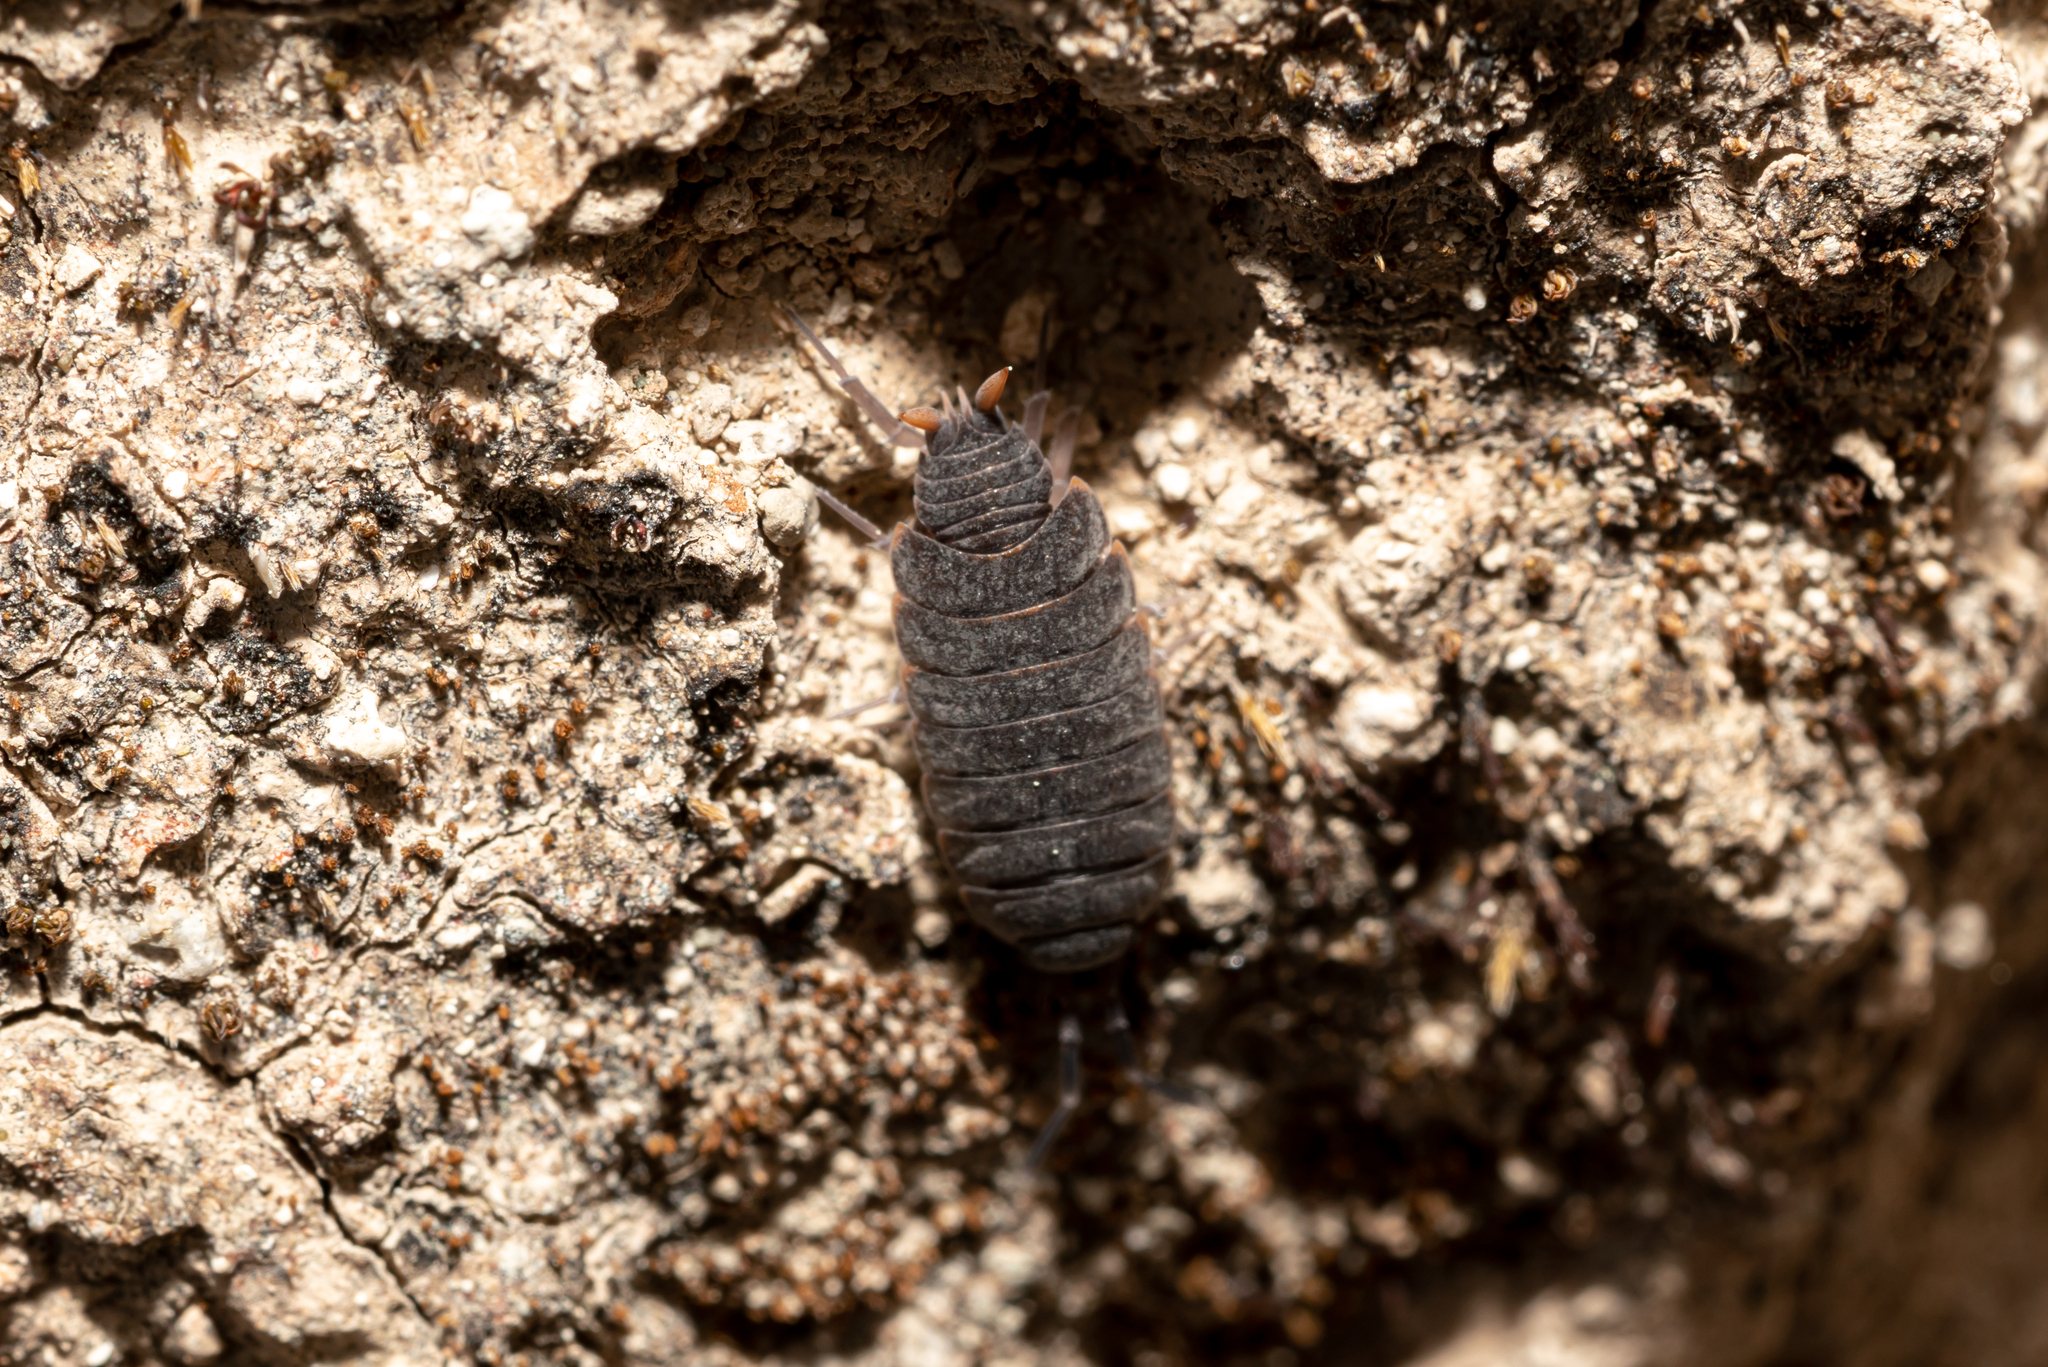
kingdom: Animalia
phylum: Arthropoda
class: Malacostraca
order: Isopoda
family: Porcellionidae
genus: Porcellionides
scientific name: Porcellionides pruinosus
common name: Plum woodlouse
